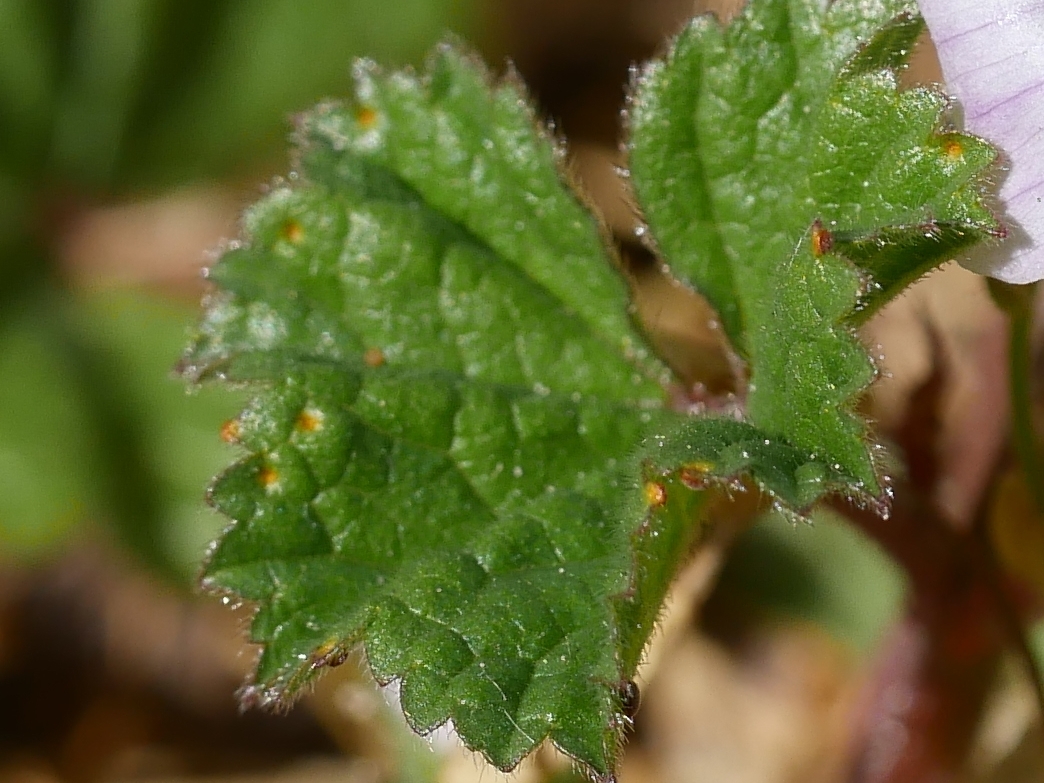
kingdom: Fungi
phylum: Basidiomycota
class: Pucciniomycetes
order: Pucciniales
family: Pucciniaceae
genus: Puccinia
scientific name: Puccinia malvacearum
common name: Hollyhock rust
